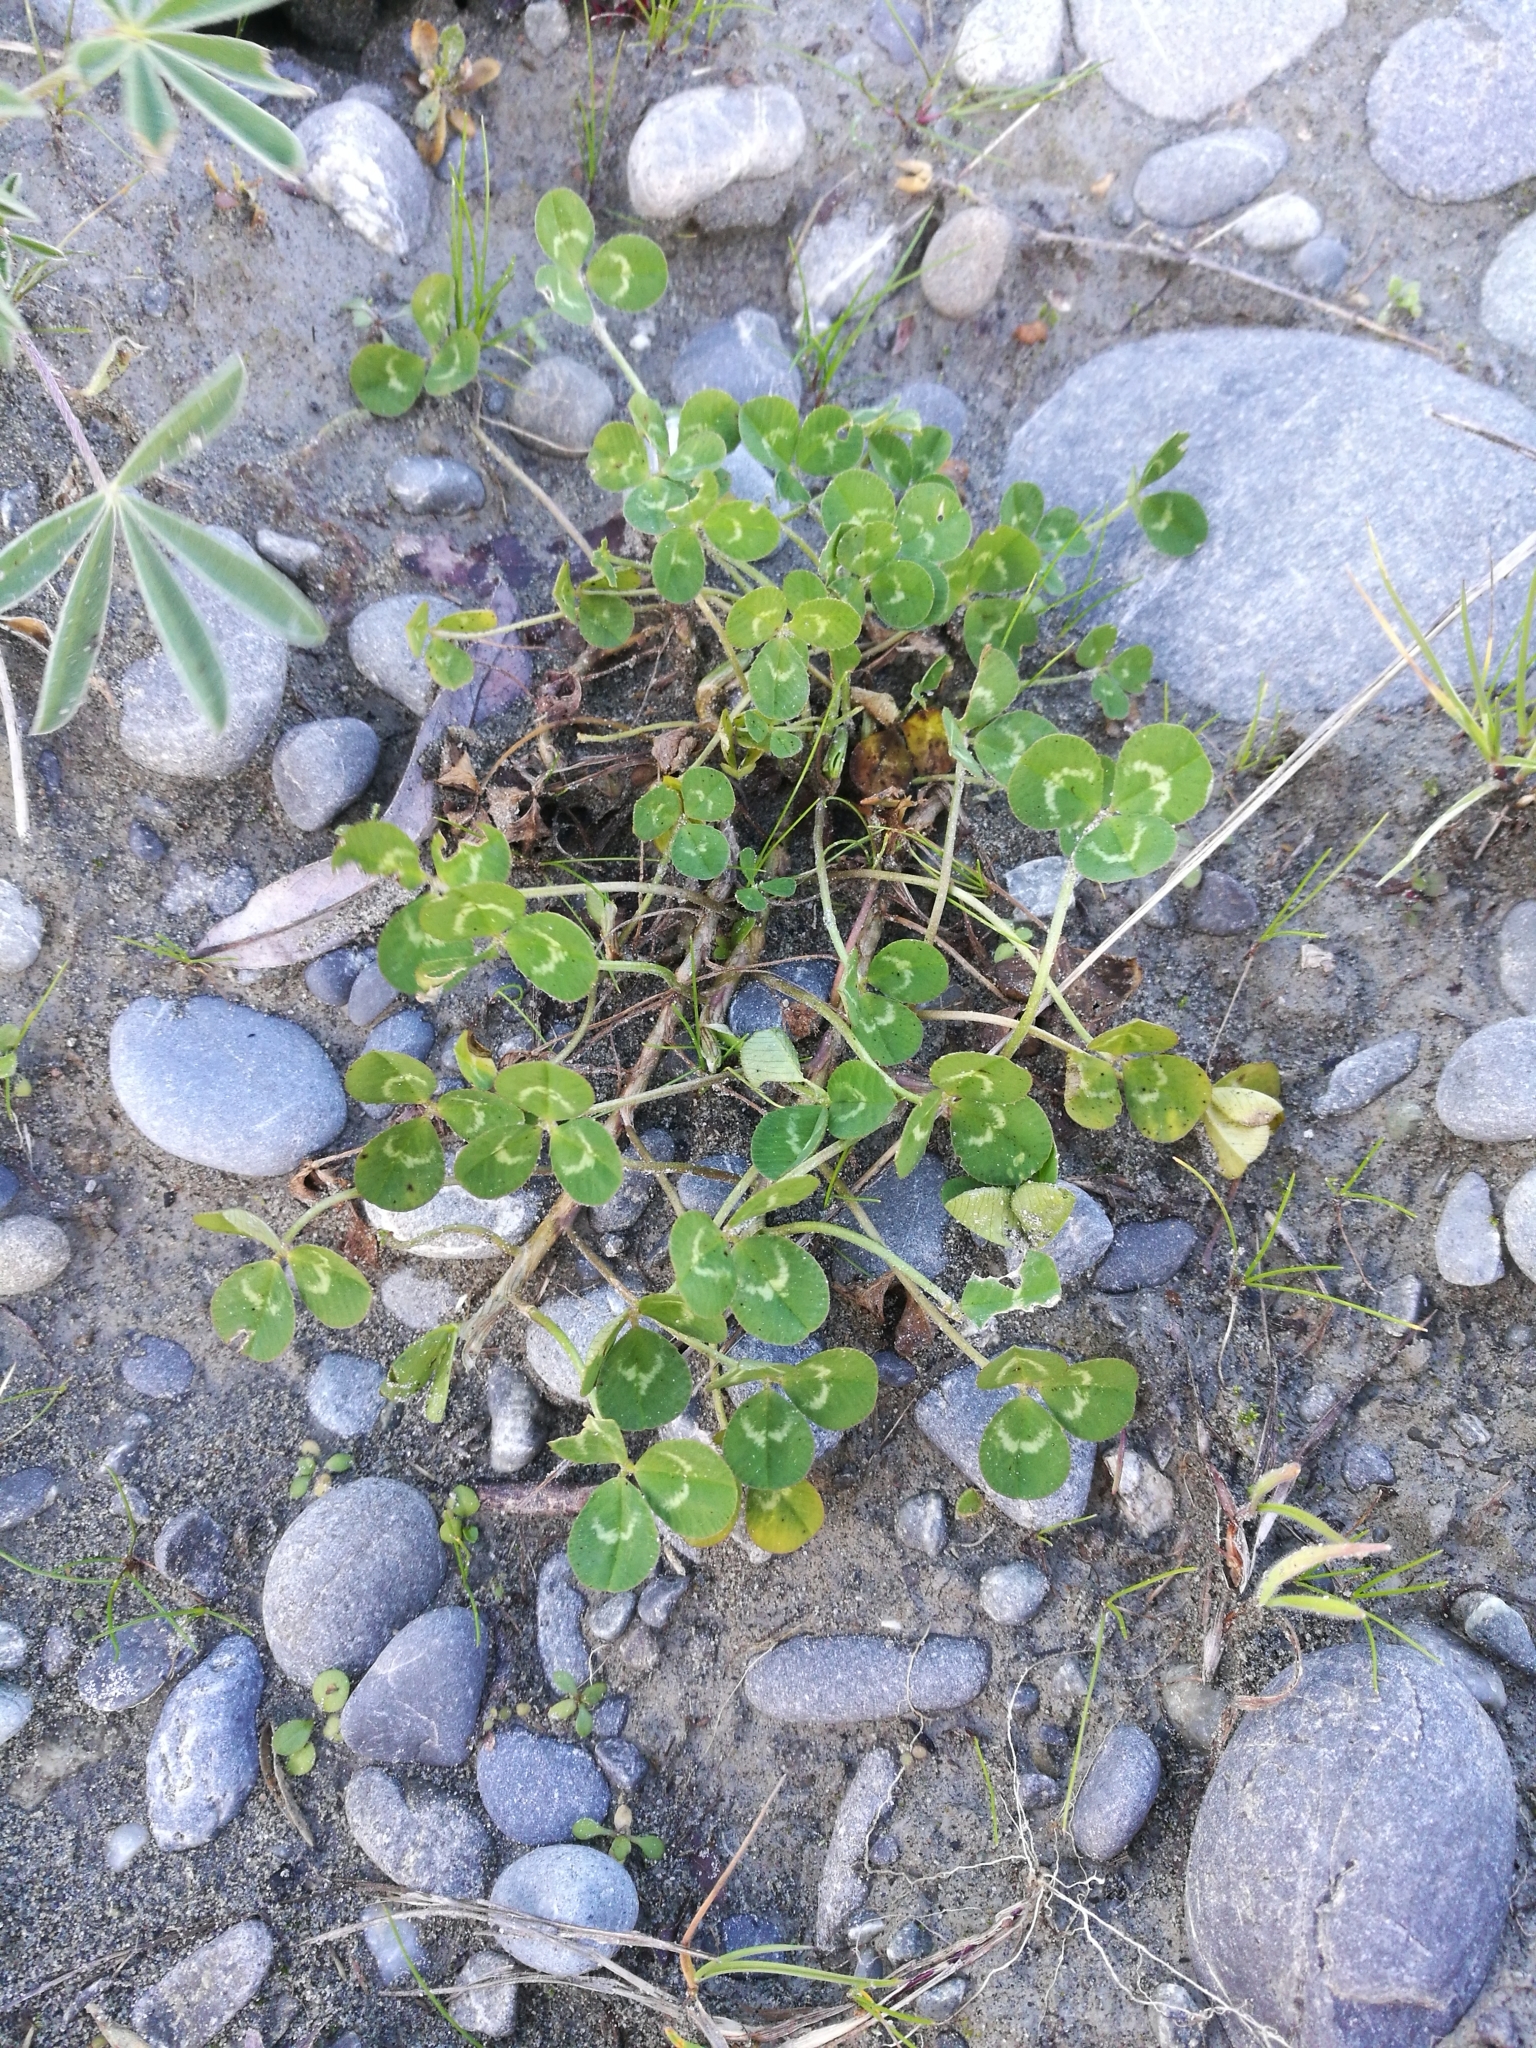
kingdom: Plantae
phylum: Tracheophyta
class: Magnoliopsida
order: Fabales
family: Fabaceae
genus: Trifolium
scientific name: Trifolium repens
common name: White clover
